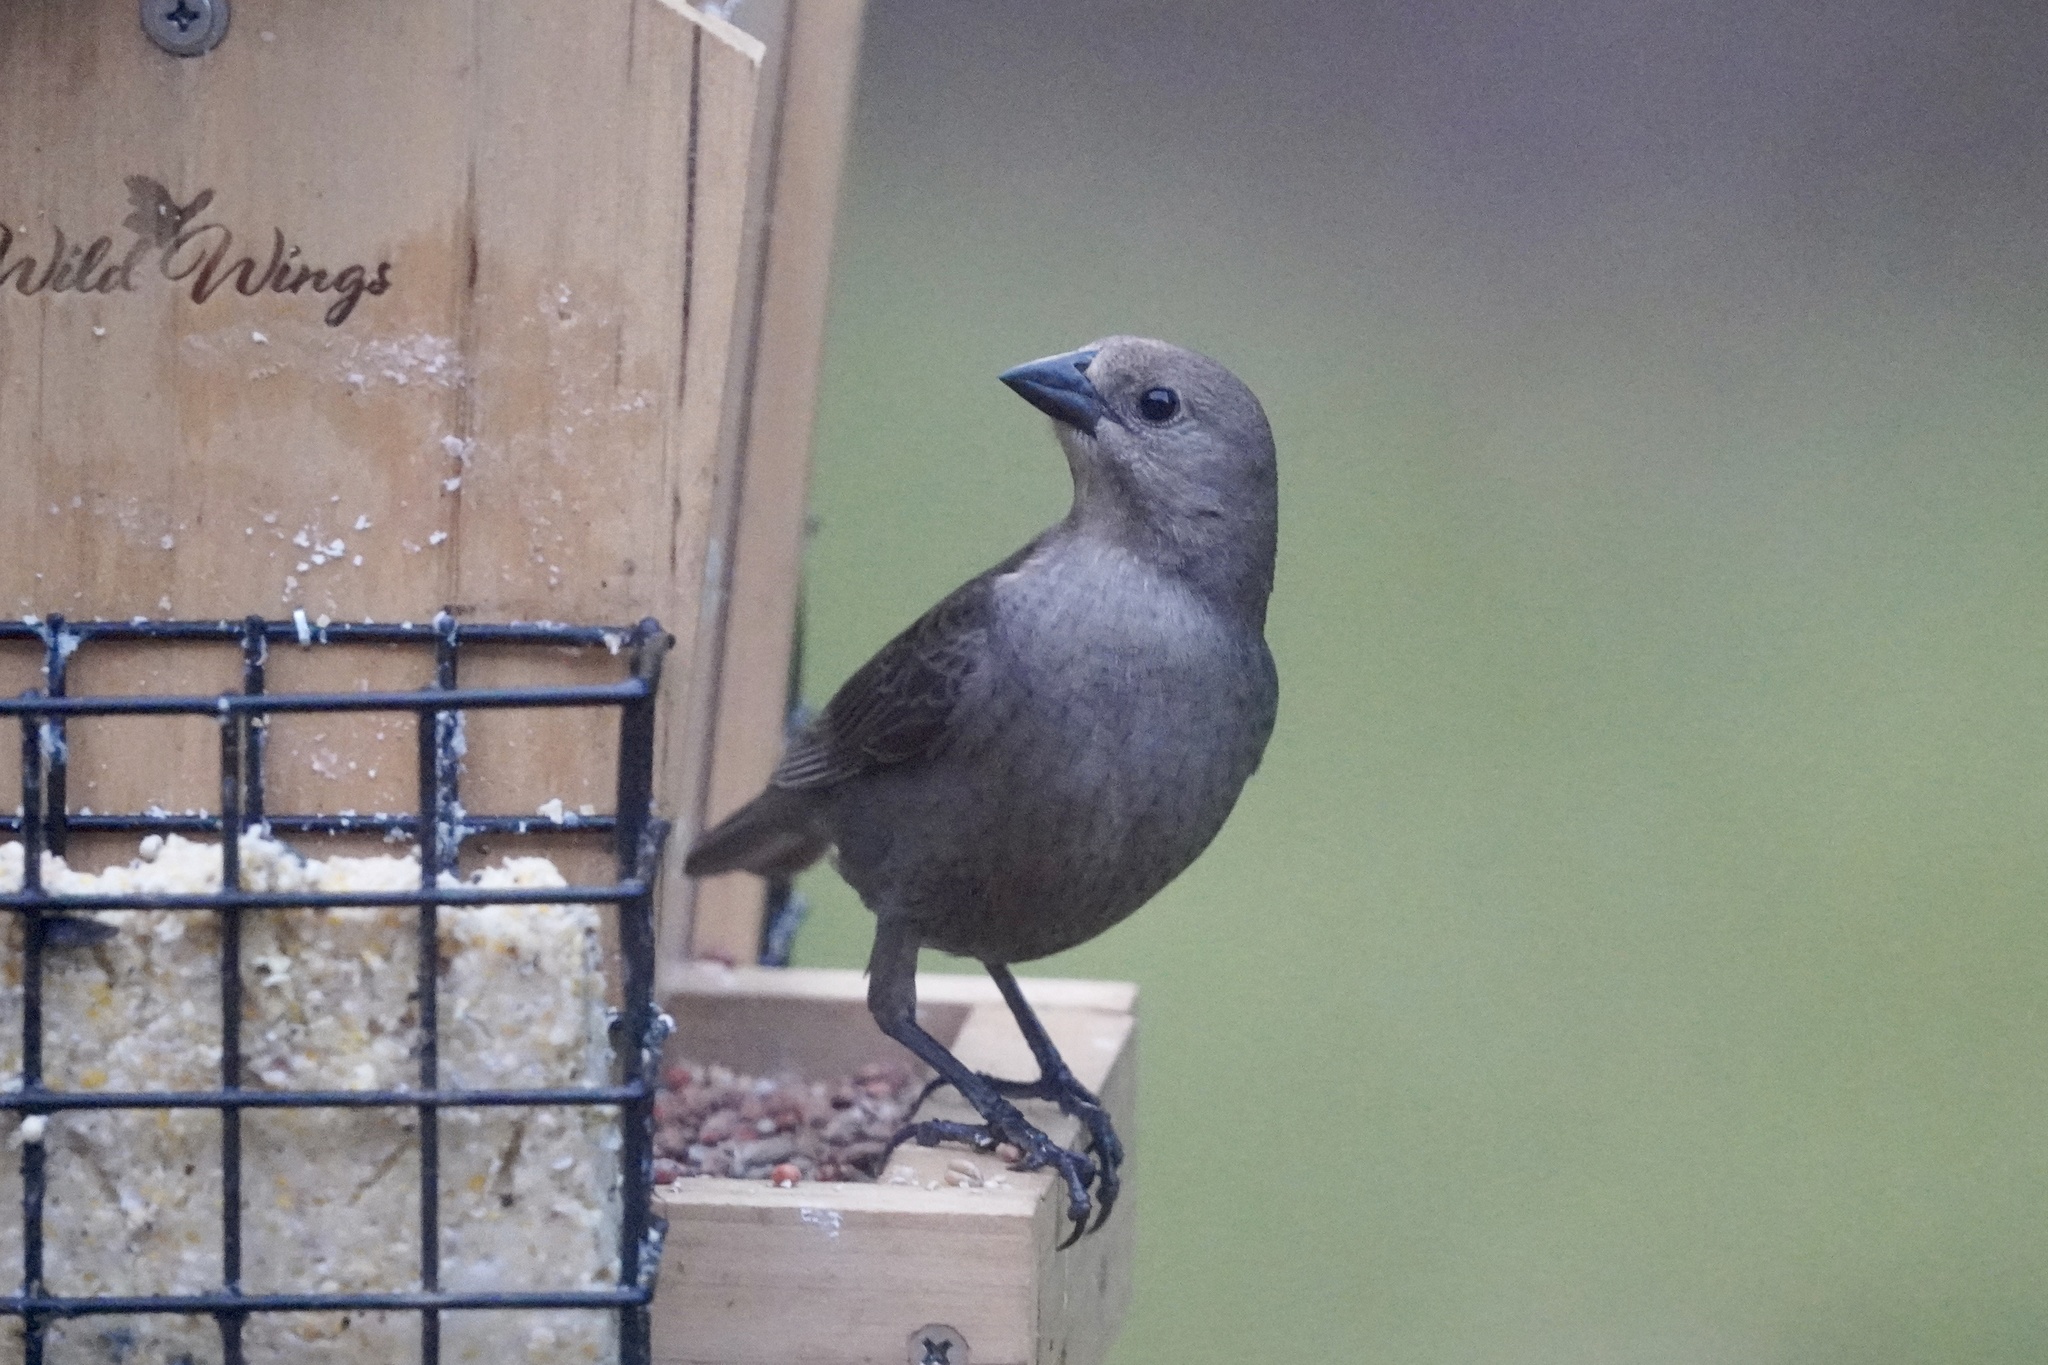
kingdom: Animalia
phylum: Chordata
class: Aves
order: Passeriformes
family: Icteridae
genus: Molothrus
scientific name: Molothrus ater
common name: Brown-headed cowbird
